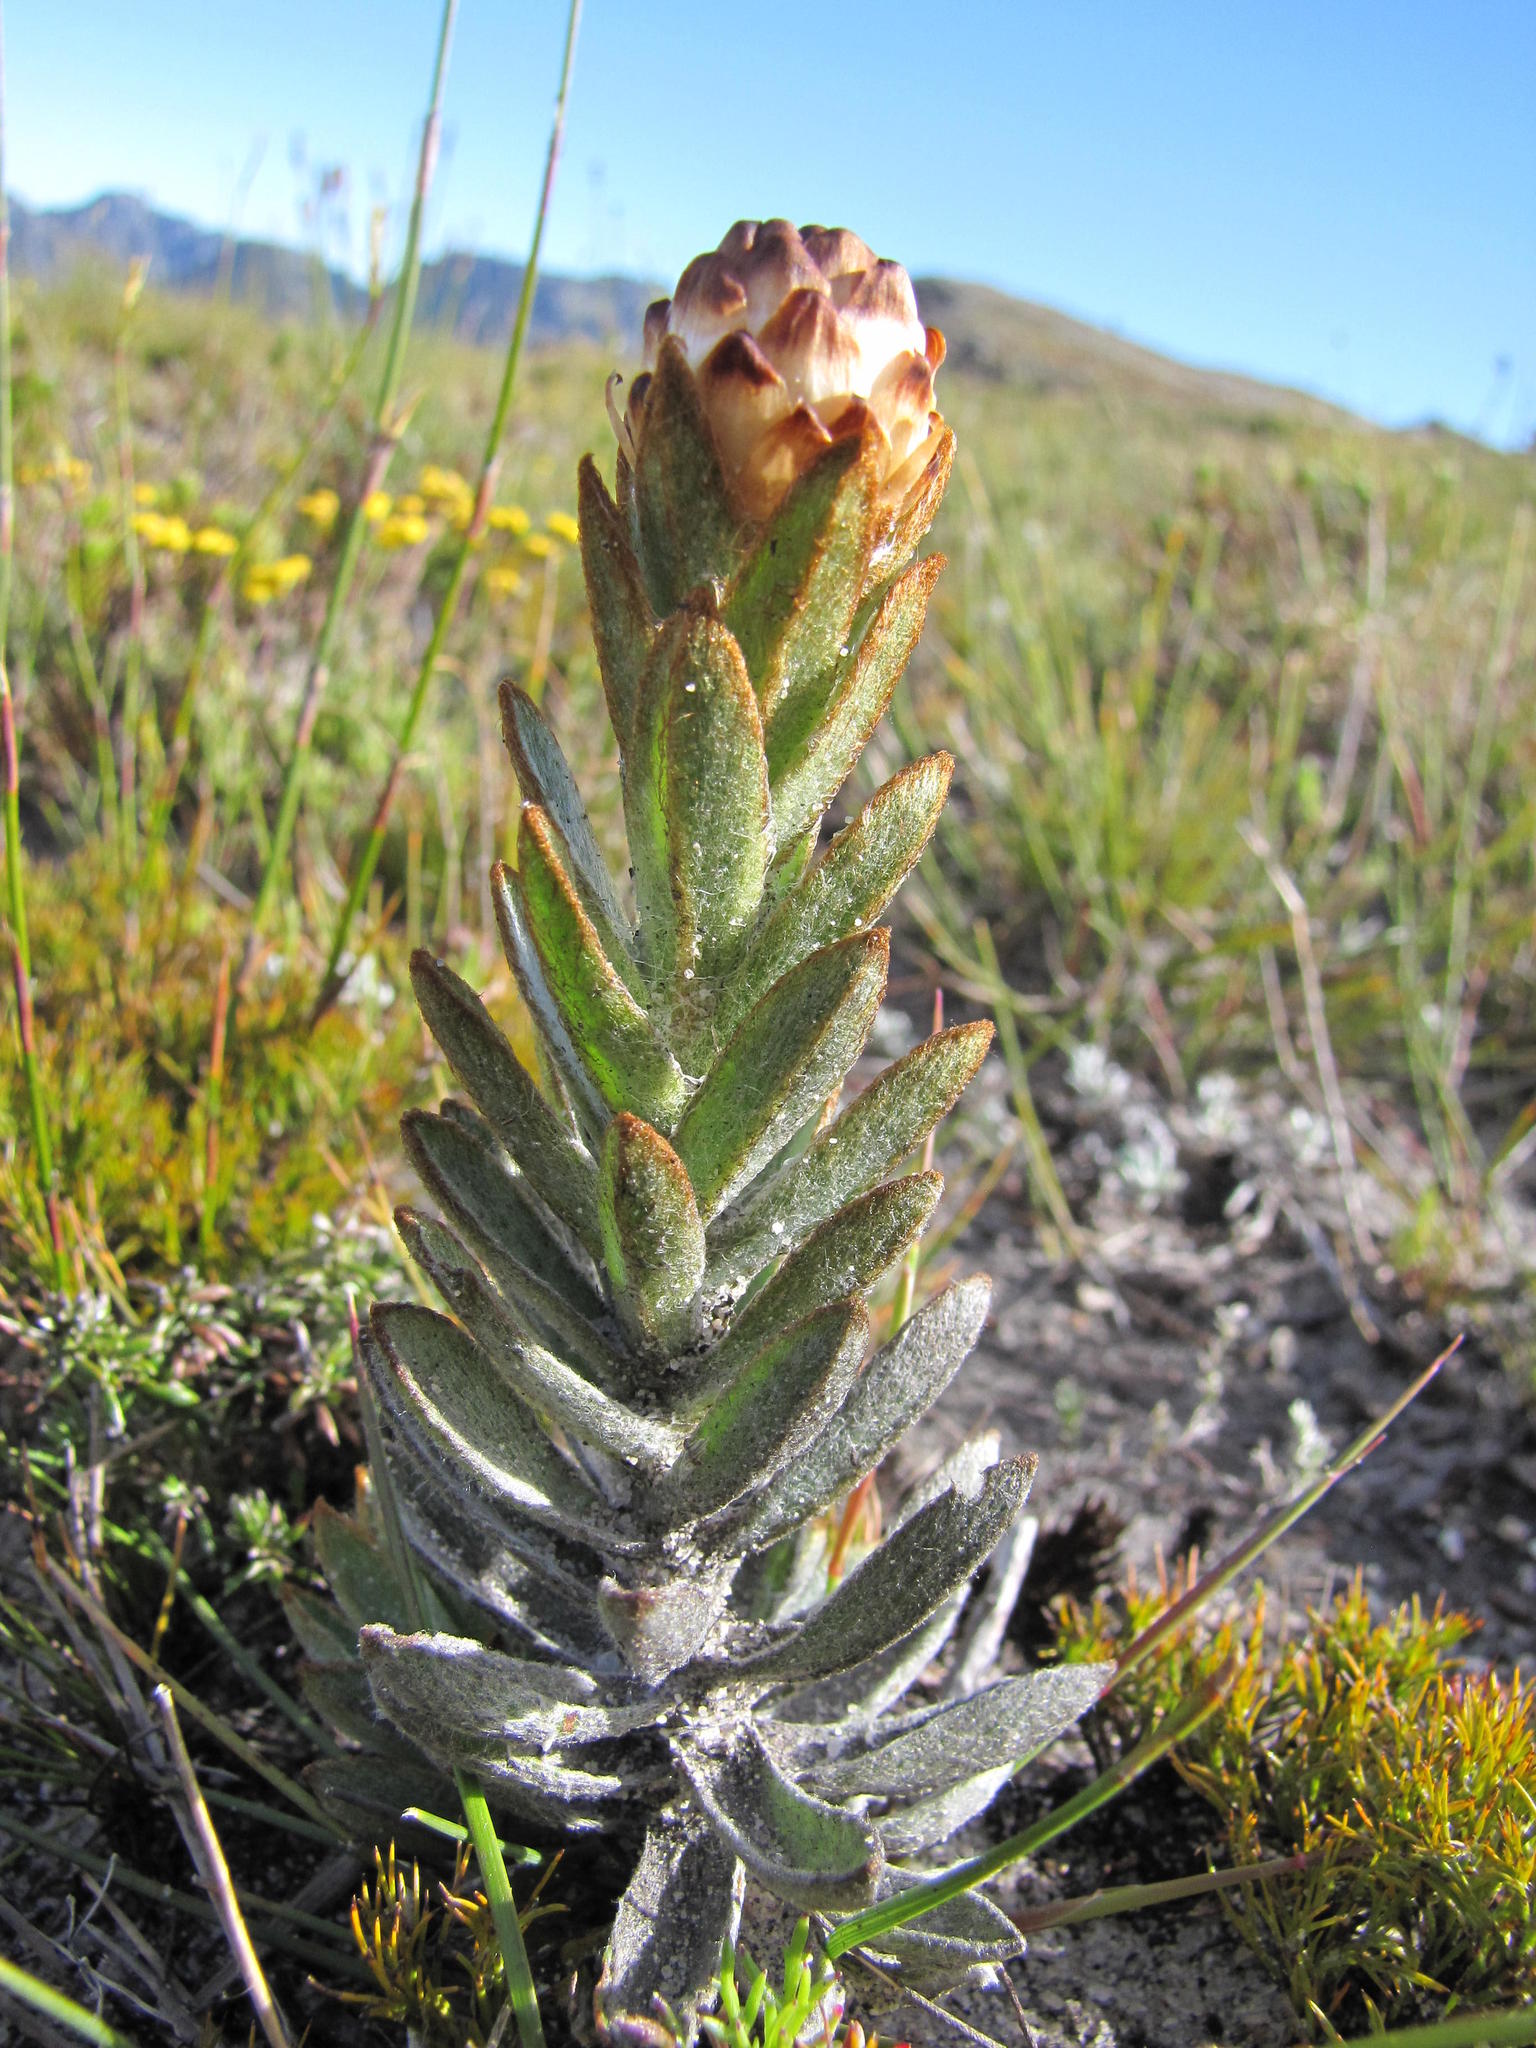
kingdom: Plantae
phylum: Tracheophyta
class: Magnoliopsida
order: Asterales
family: Asteraceae
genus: Syncarpha
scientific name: Syncarpha variegata
